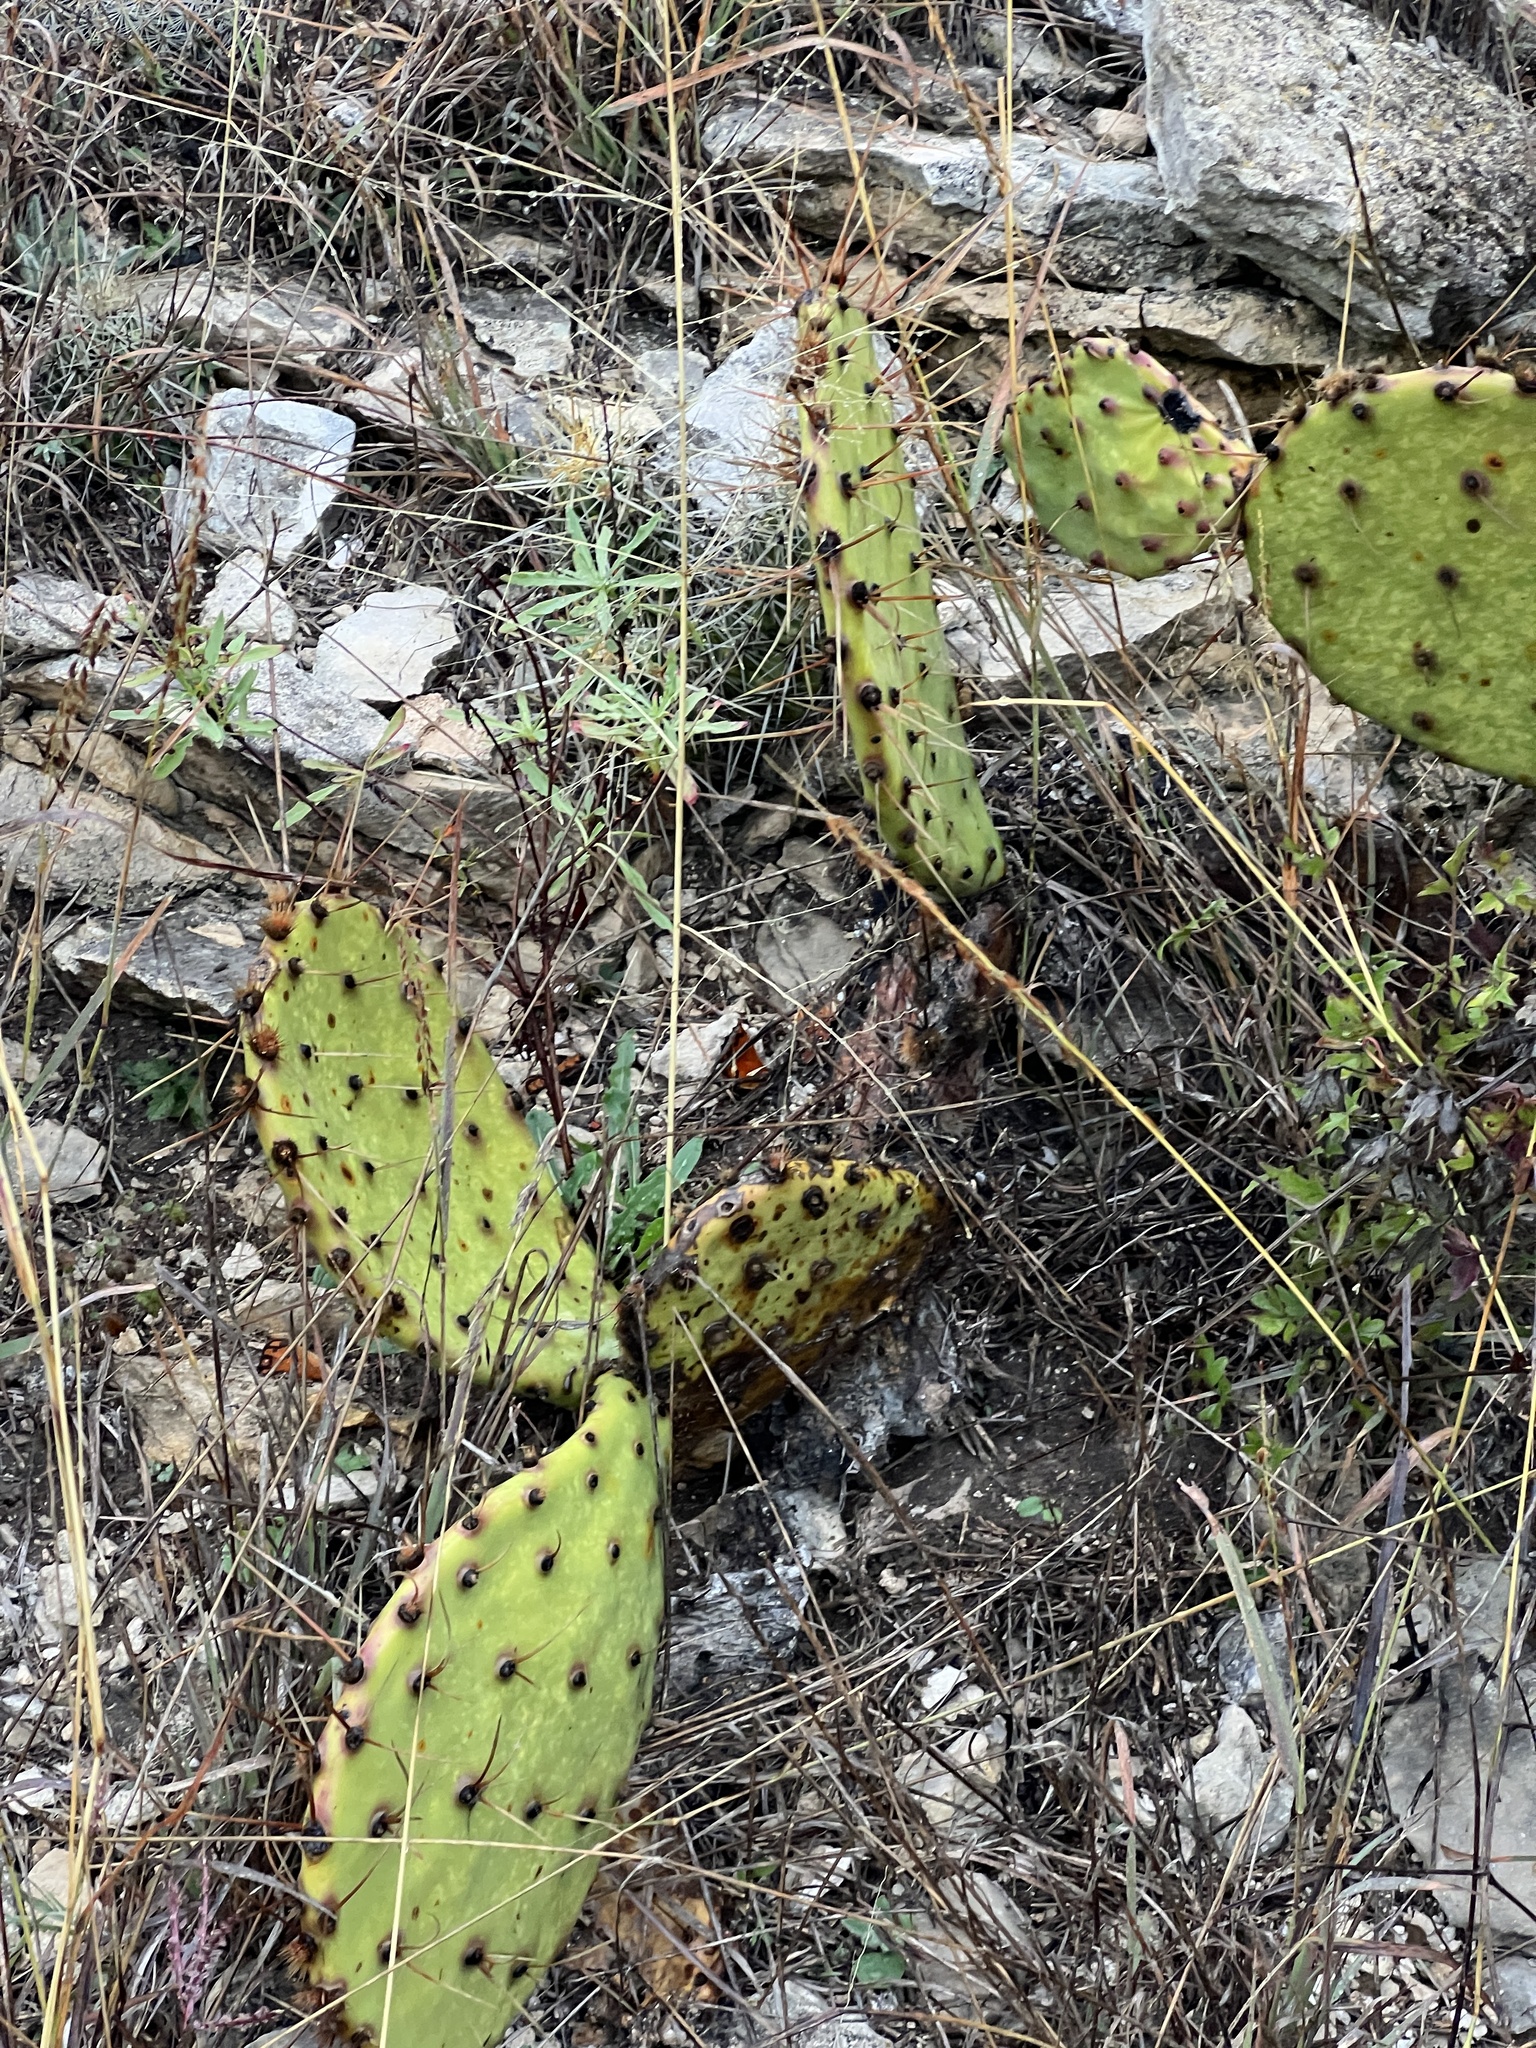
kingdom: Plantae
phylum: Tracheophyta
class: Magnoliopsida
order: Caryophyllales
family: Cactaceae
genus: Opuntia
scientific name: Opuntia phaeacantha
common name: New mexico prickly-pear
